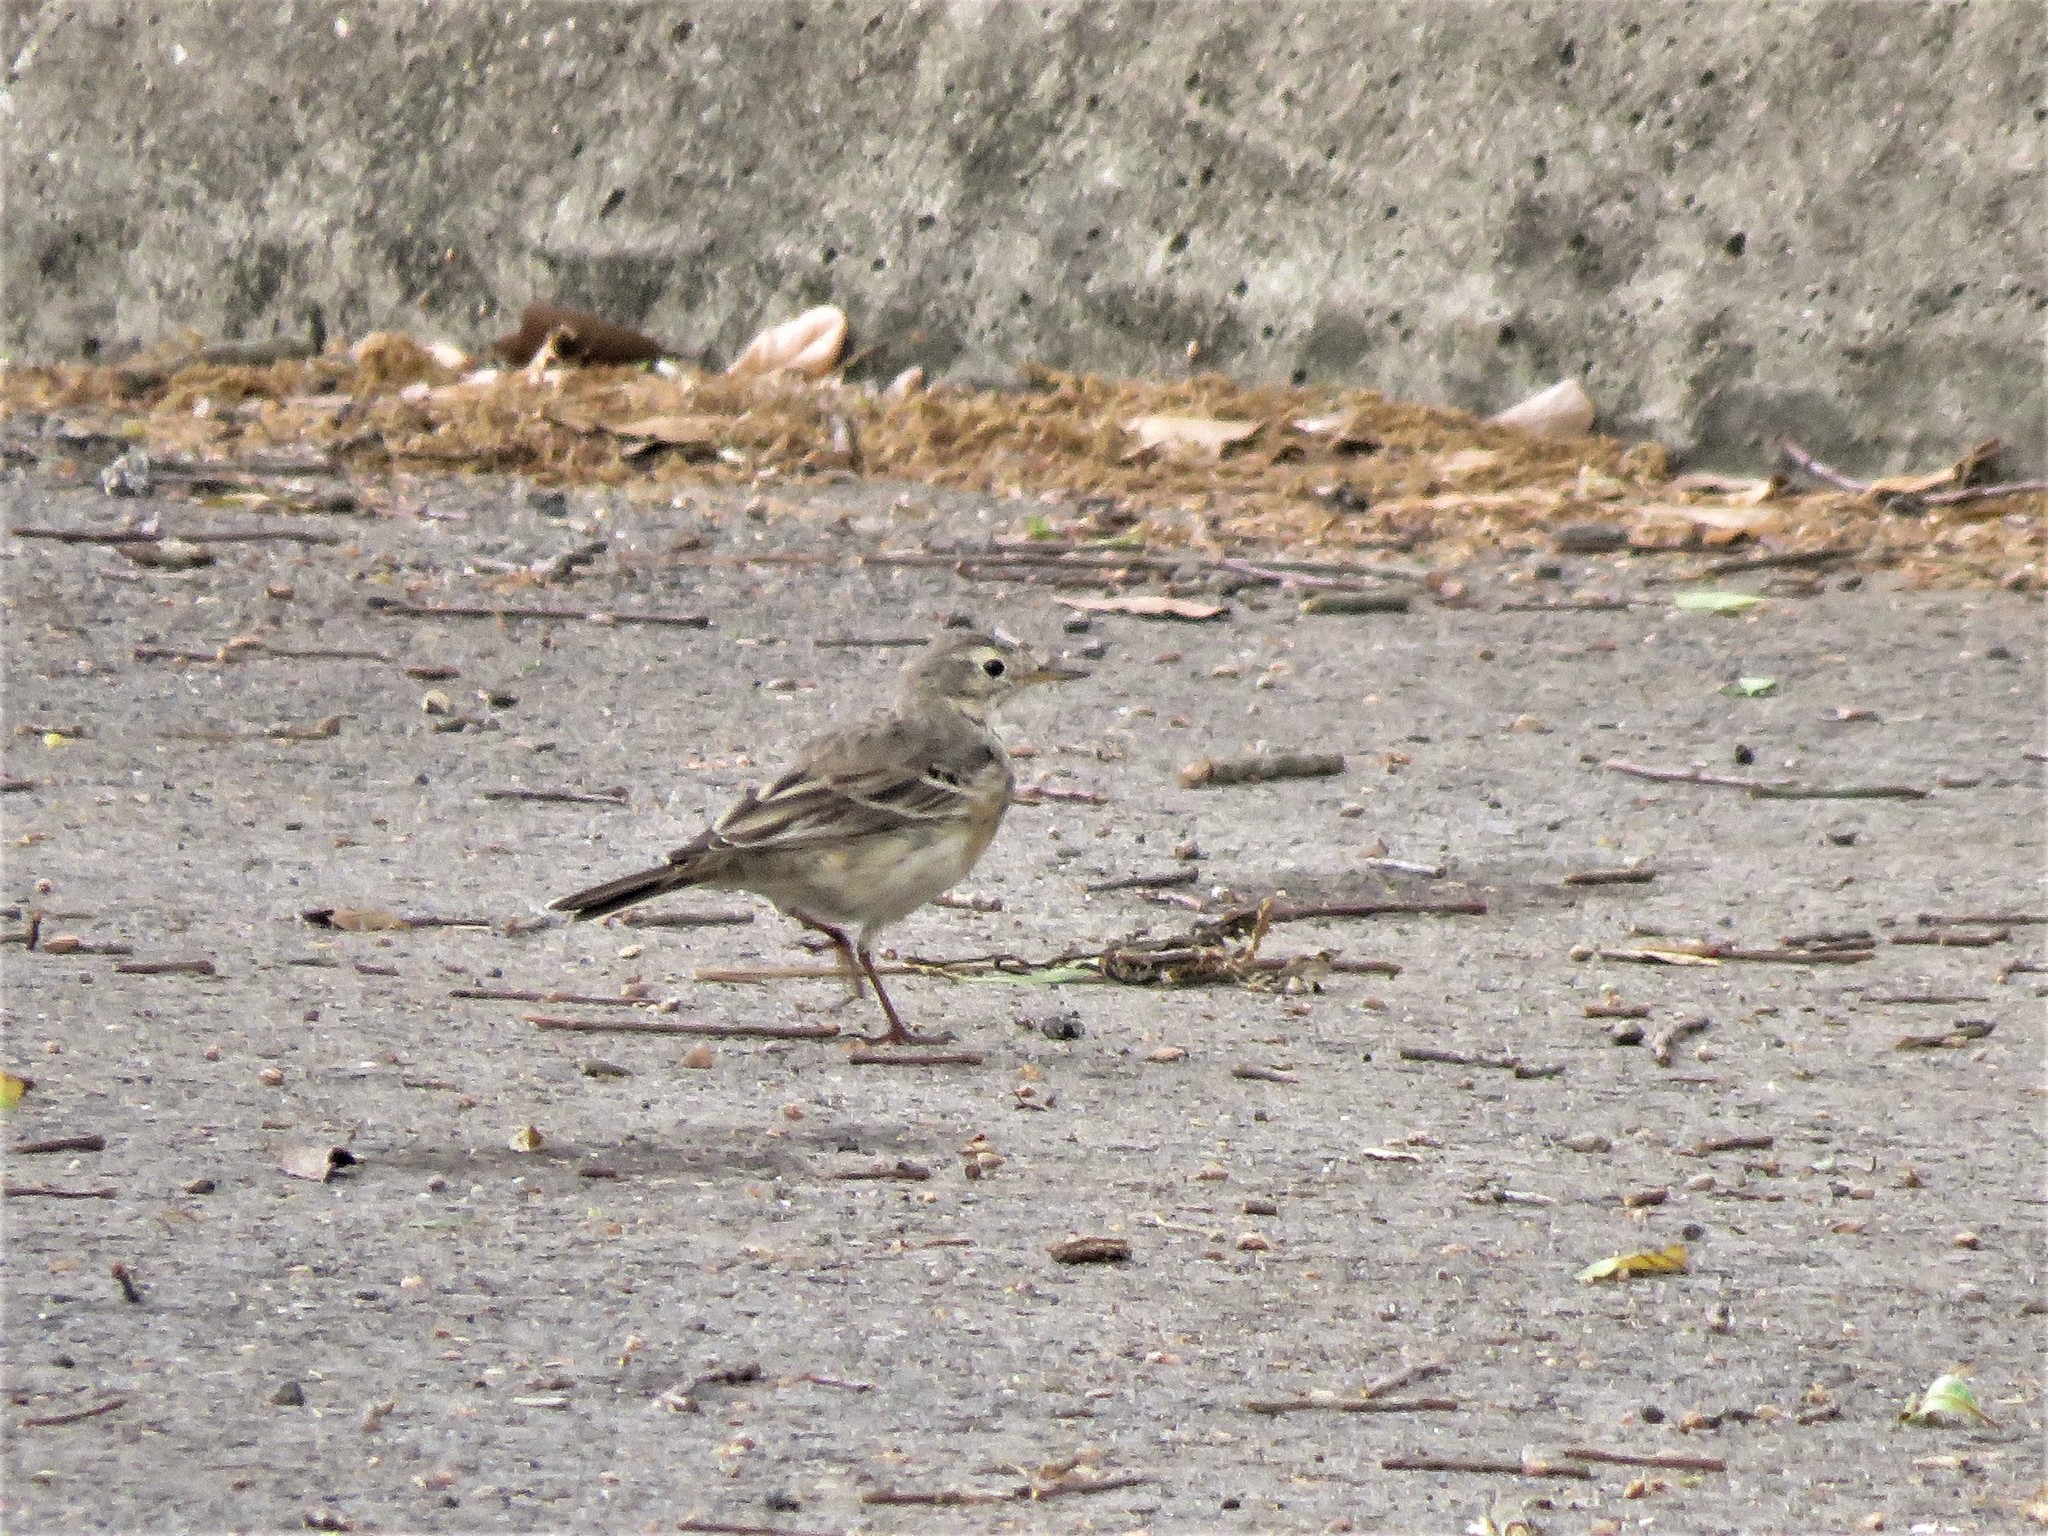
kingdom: Animalia
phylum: Chordata
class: Aves
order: Passeriformes
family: Motacillidae
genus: Anthus
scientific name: Anthus rubescens
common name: Buff-bellied pipit
